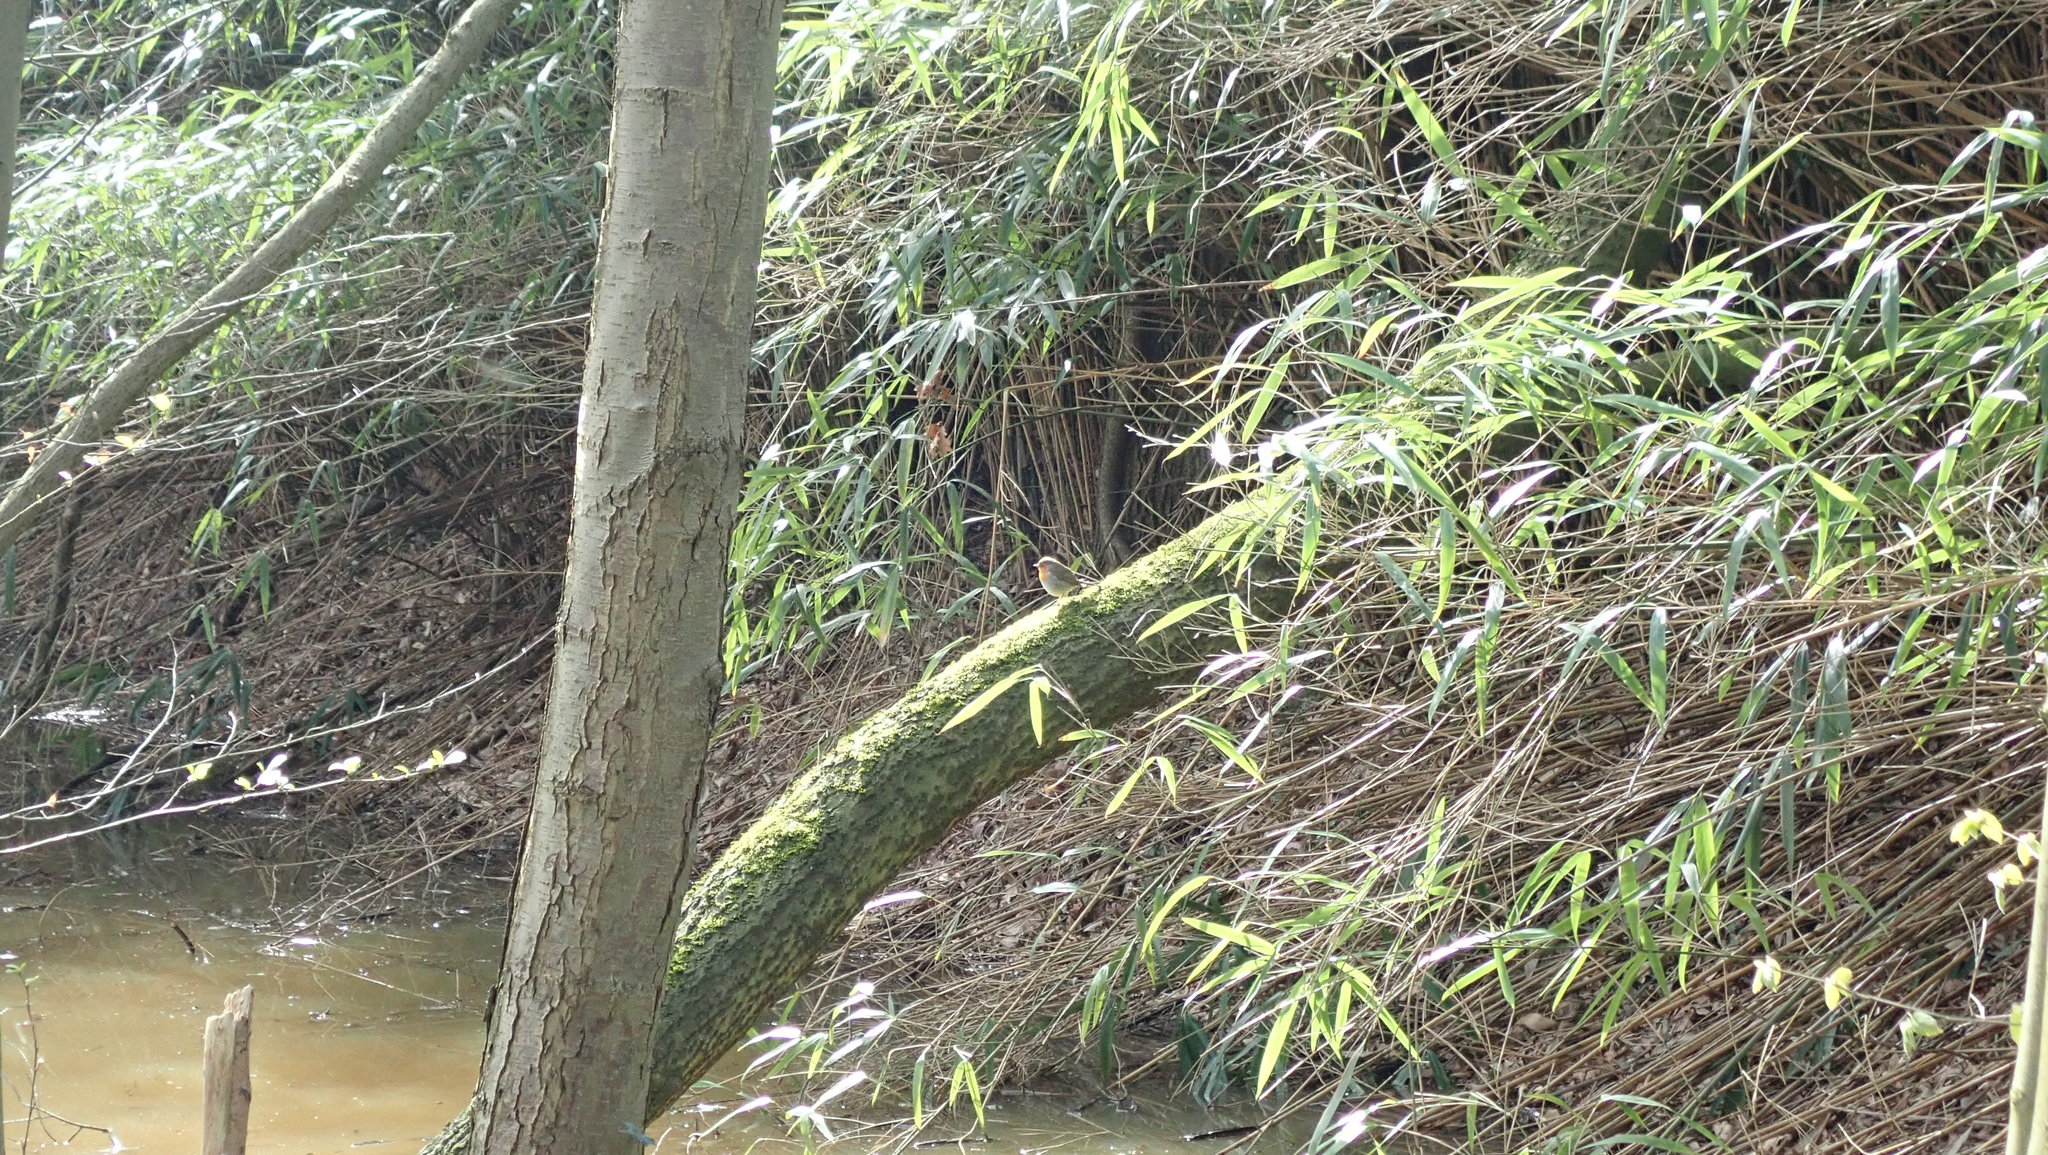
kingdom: Animalia
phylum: Chordata
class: Aves
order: Passeriformes
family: Muscicapidae
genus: Erithacus
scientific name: Erithacus rubecula
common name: European robin
